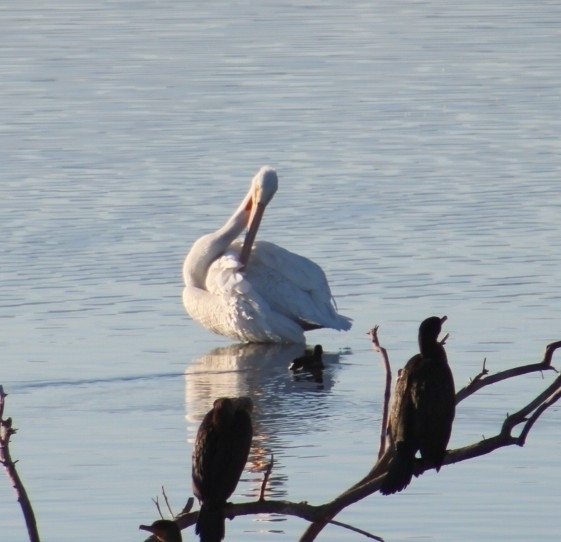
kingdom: Animalia
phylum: Chordata
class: Aves
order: Pelecaniformes
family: Pelecanidae
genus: Pelecanus
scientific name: Pelecanus erythrorhynchos
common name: American white pelican
